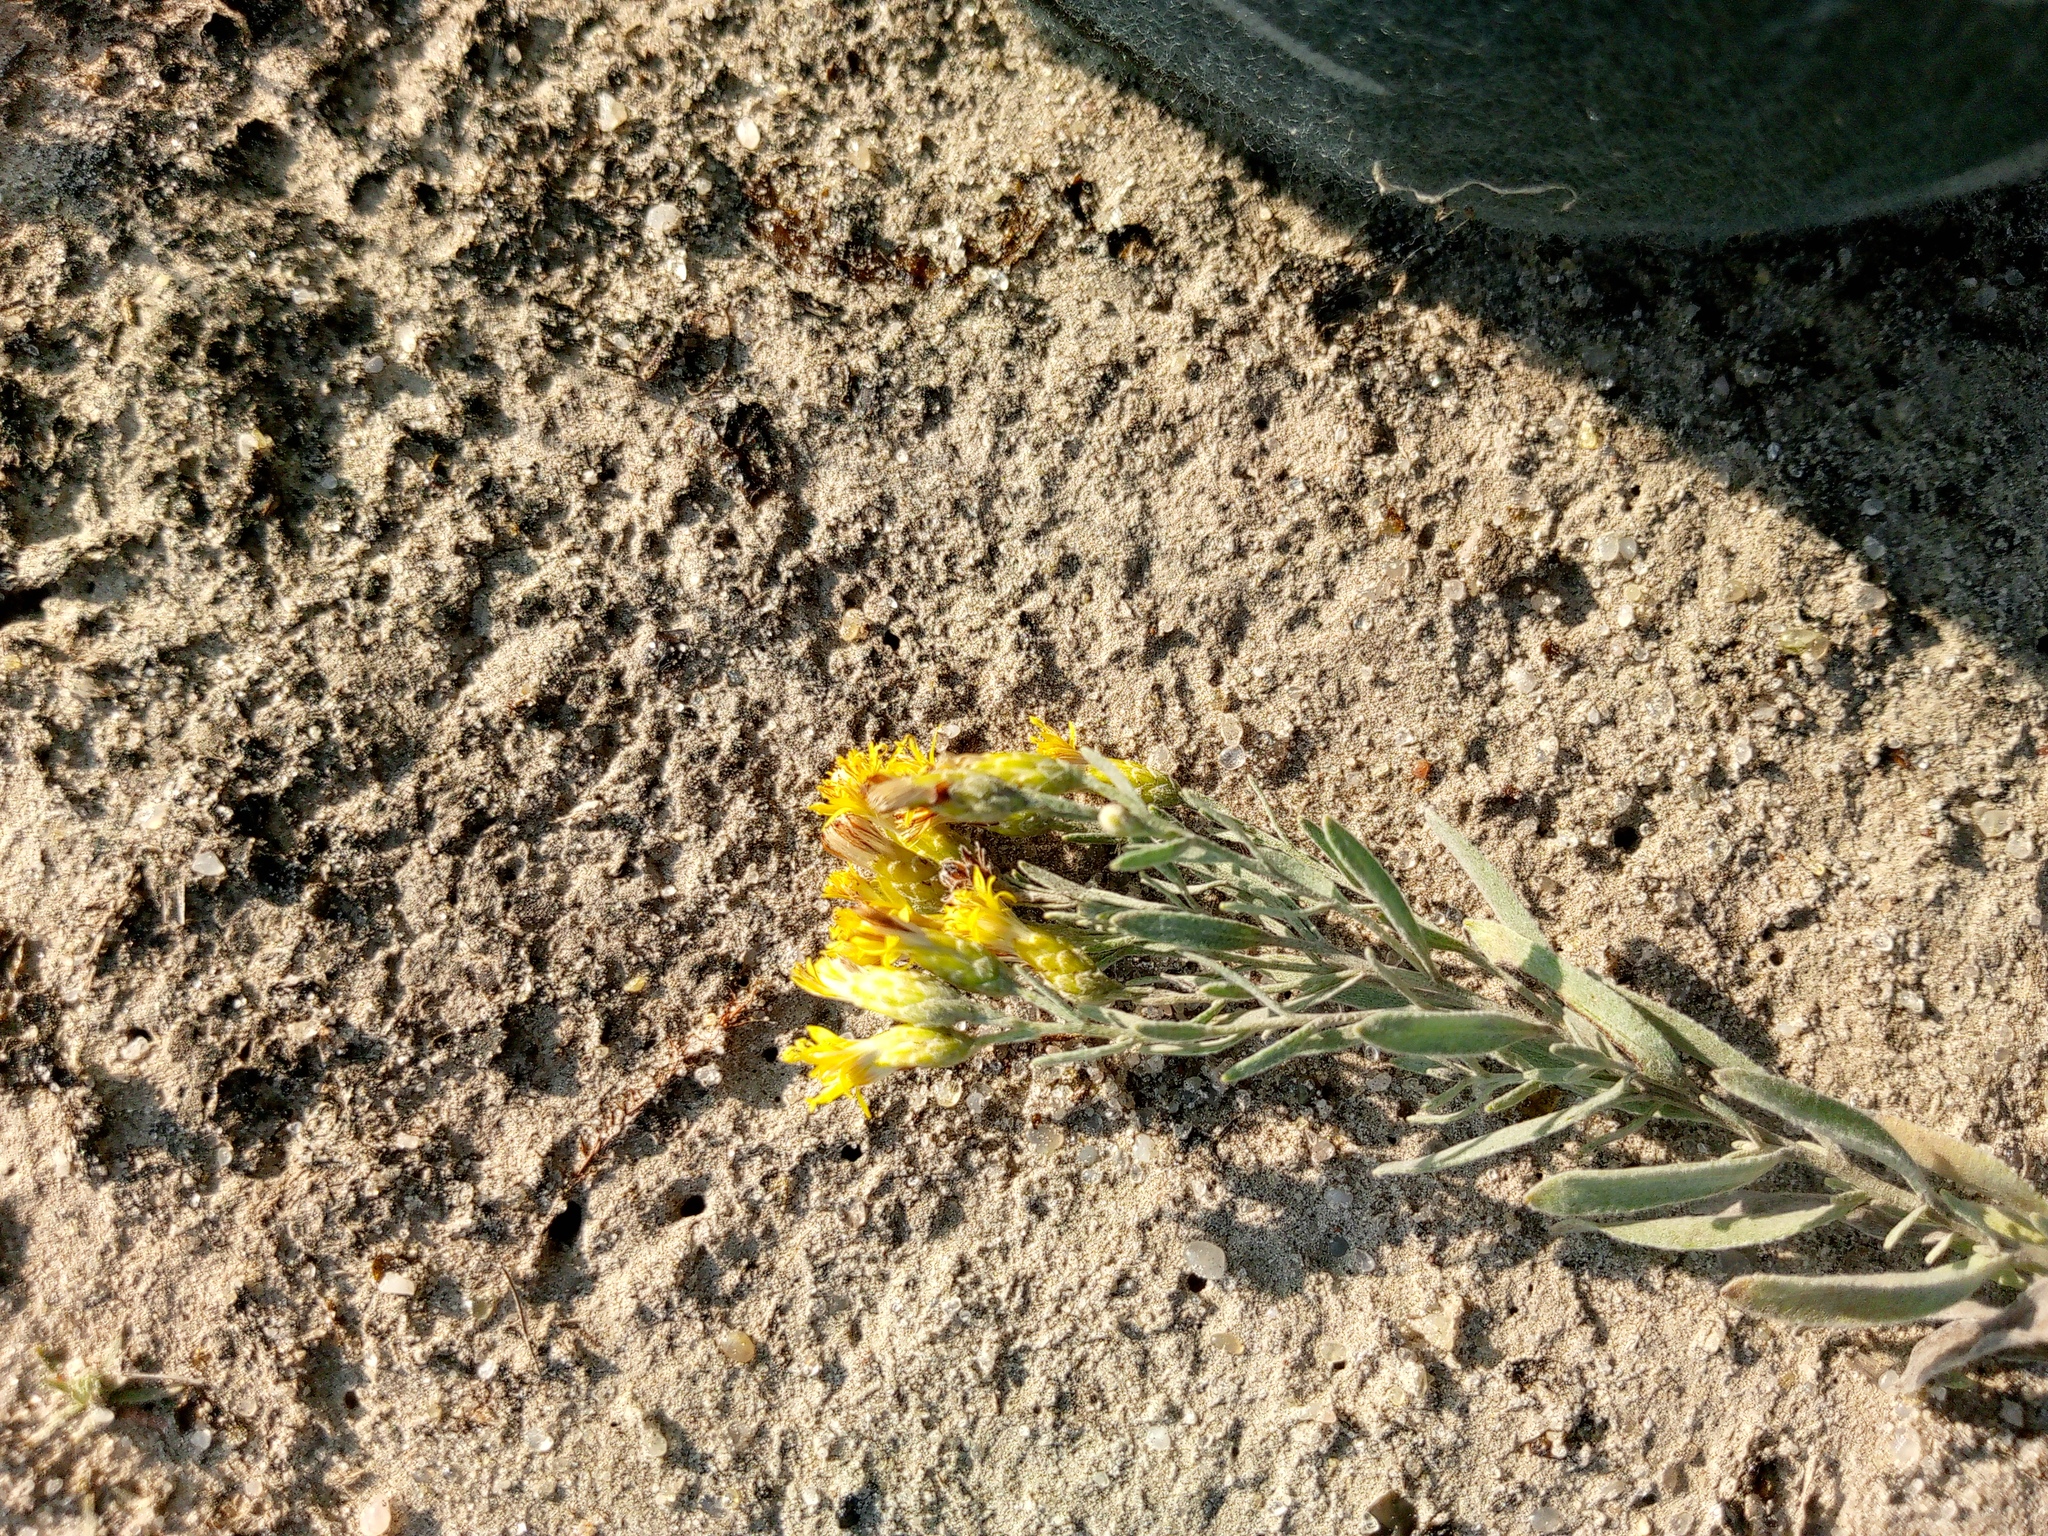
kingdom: Plantae
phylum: Tracheophyta
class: Magnoliopsida
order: Asterales
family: Asteraceae
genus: Galatella
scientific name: Galatella villosa
